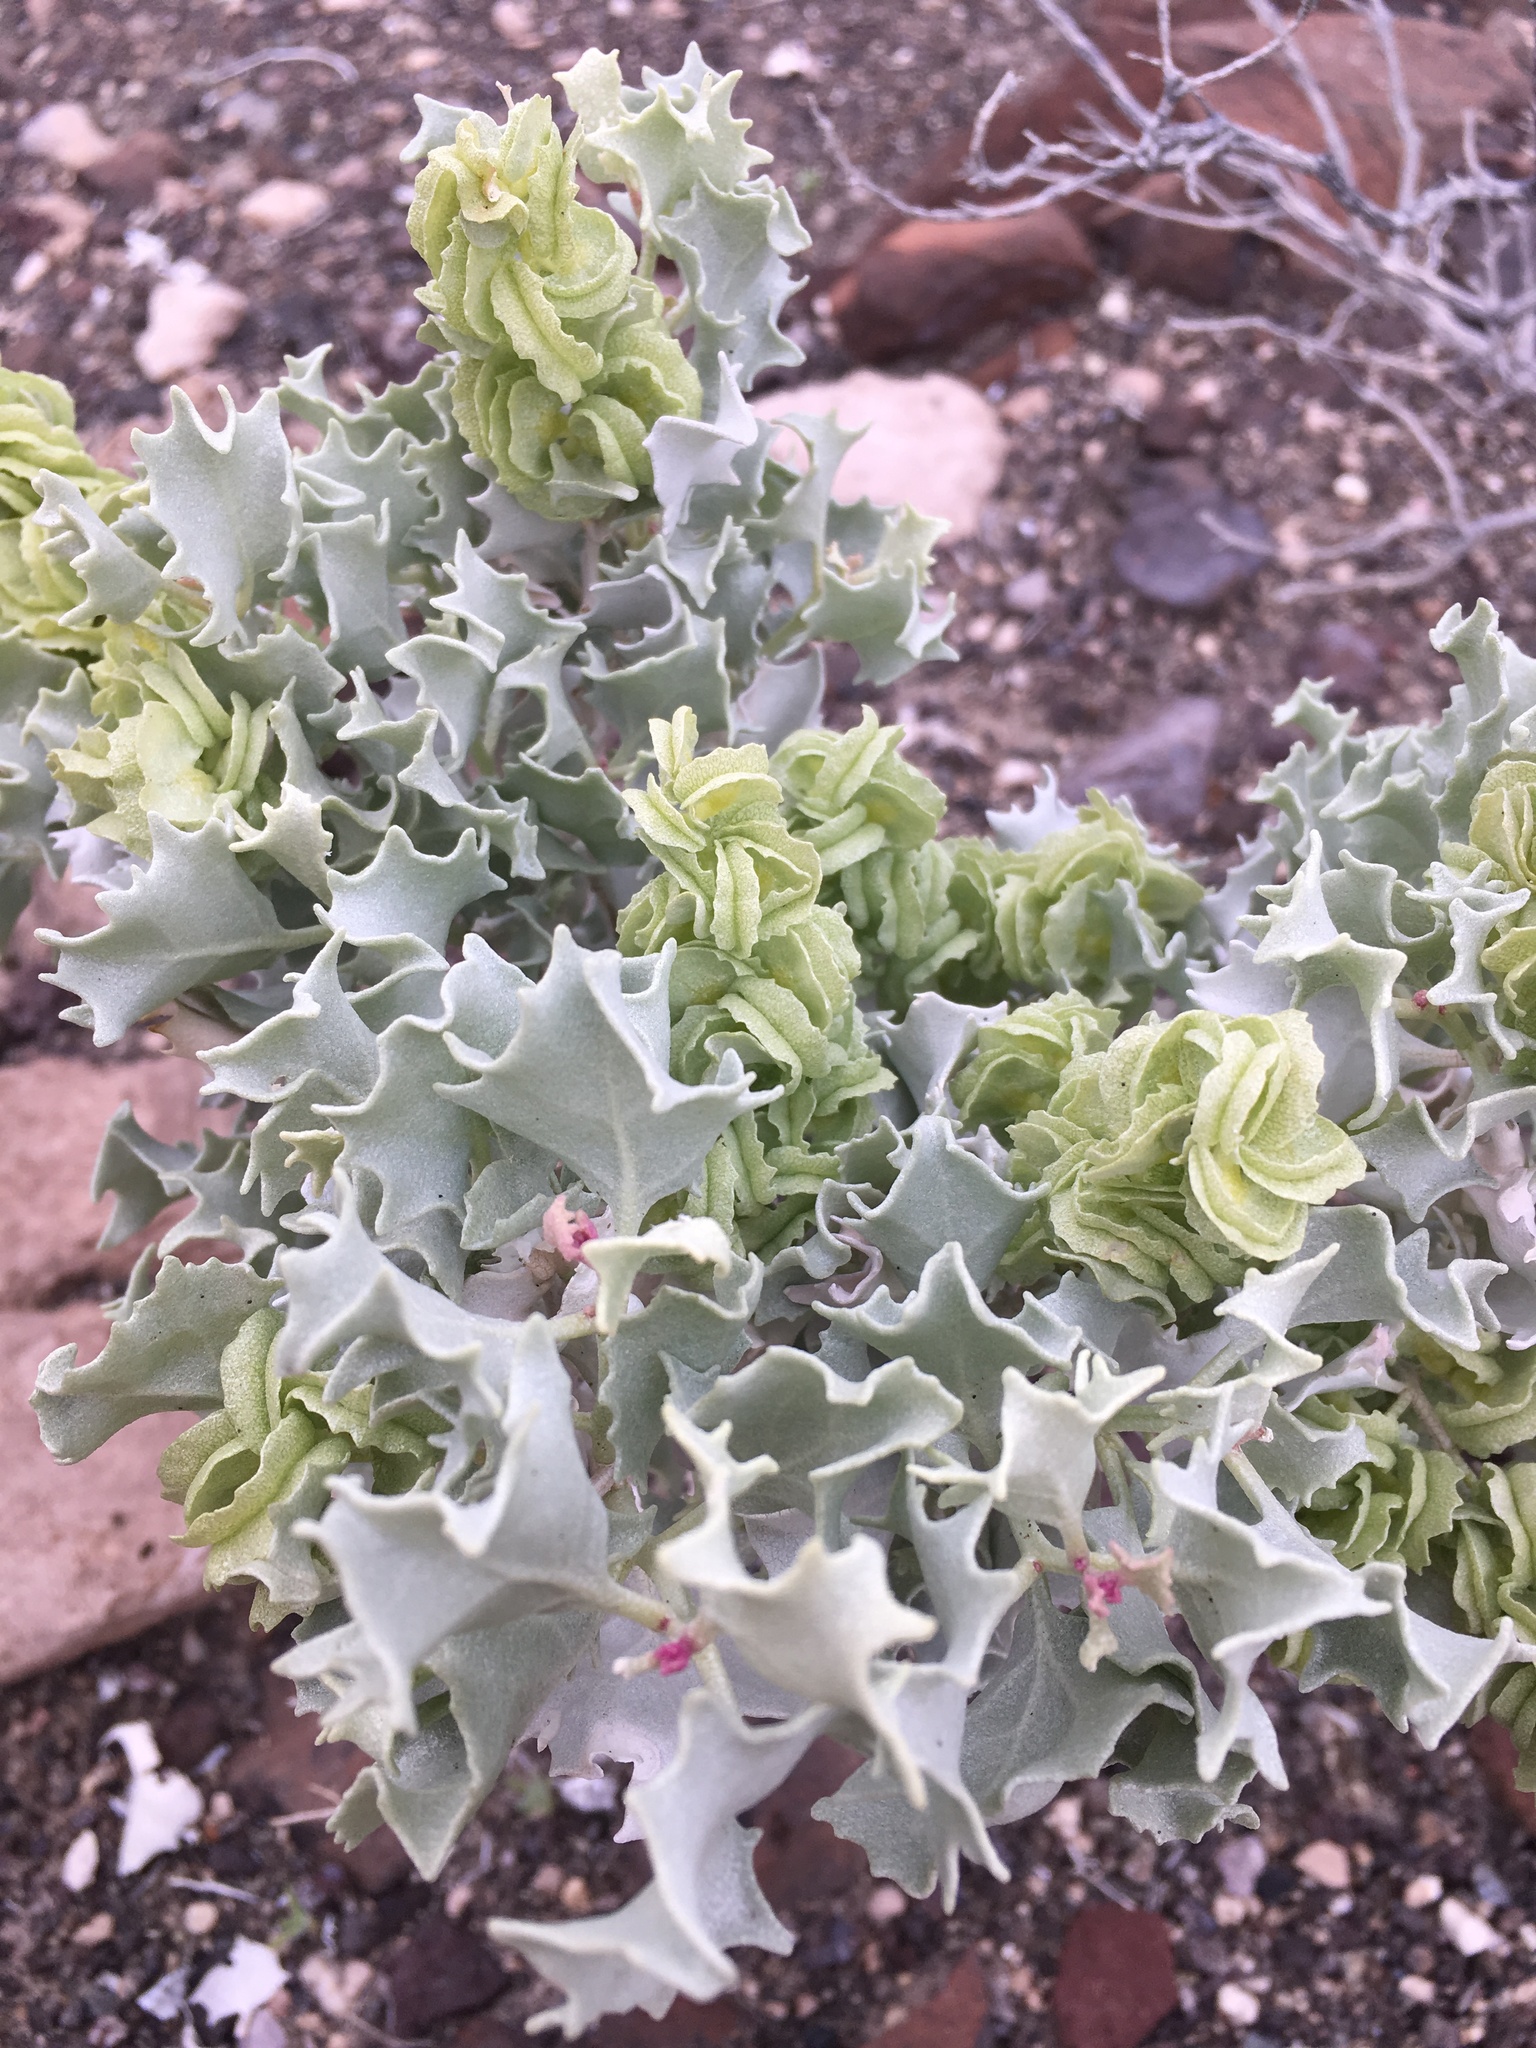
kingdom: Plantae
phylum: Tracheophyta
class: Magnoliopsida
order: Caryophyllales
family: Amaranthaceae
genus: Atriplex
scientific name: Atriplex hymenelytra
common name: Desert-holly
